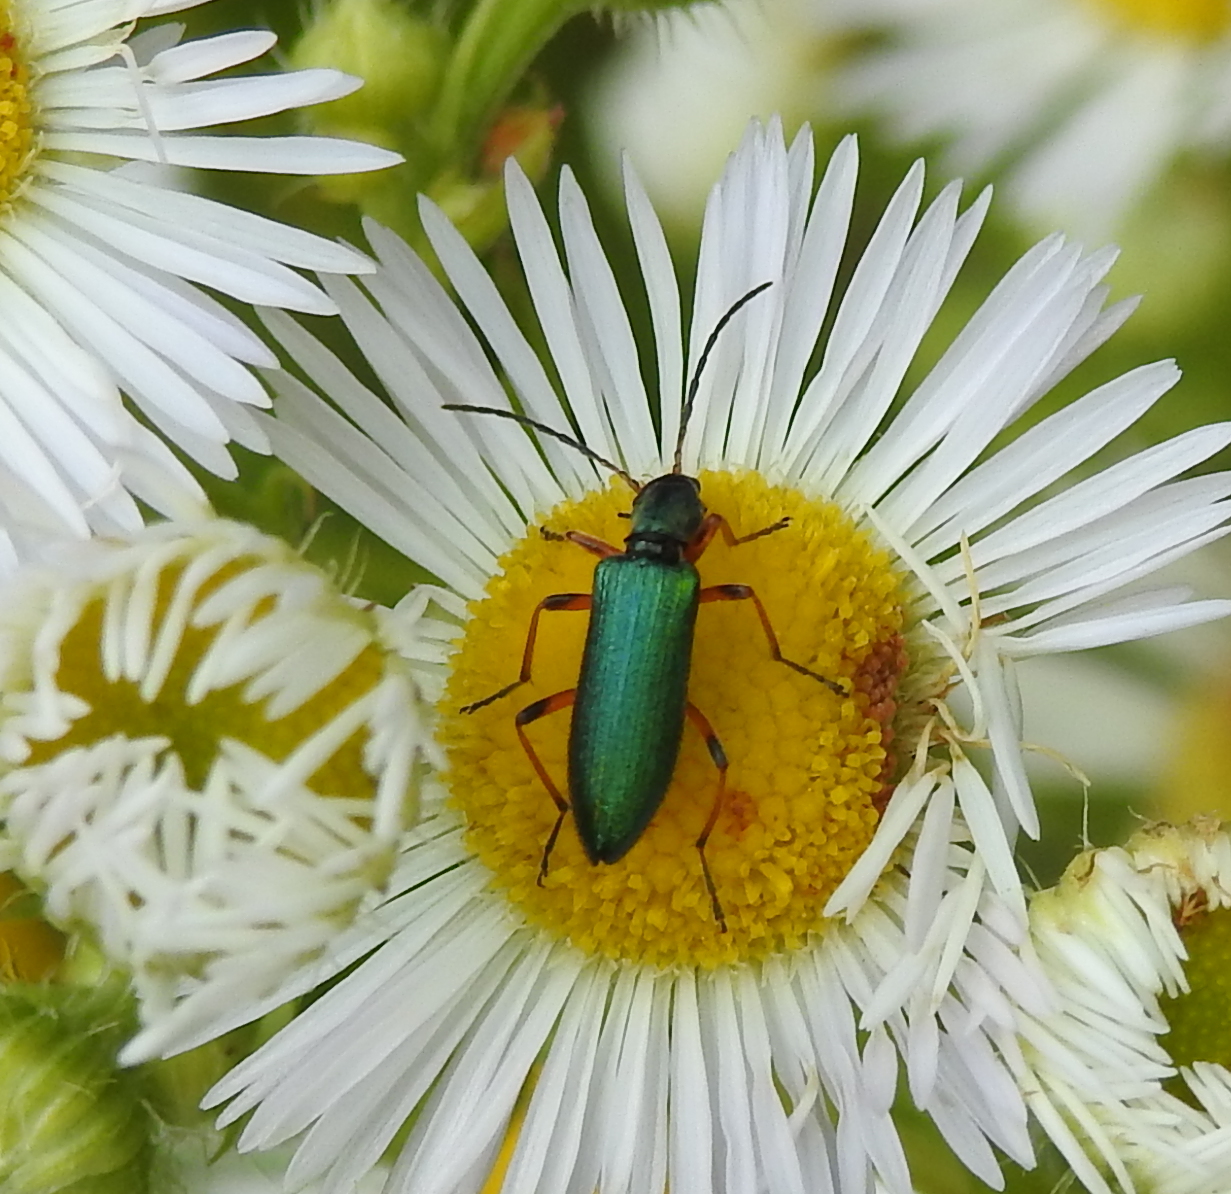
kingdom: Animalia
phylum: Arthropoda
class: Insecta
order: Coleoptera
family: Oedemeridae
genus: Chrysanthia
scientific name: Chrysanthia geniculata
